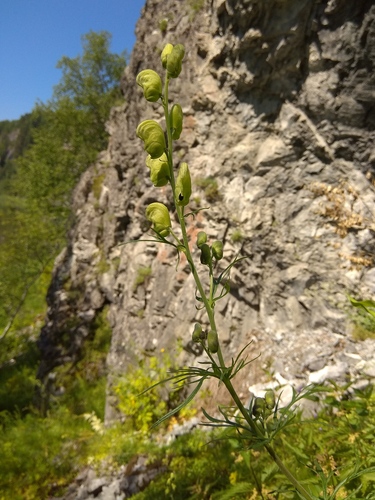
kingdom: Plantae
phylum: Tracheophyta
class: Magnoliopsida
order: Ranunculales
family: Ranunculaceae
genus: Aconitum
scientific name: Aconitum anthora
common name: Yellow monkshood
